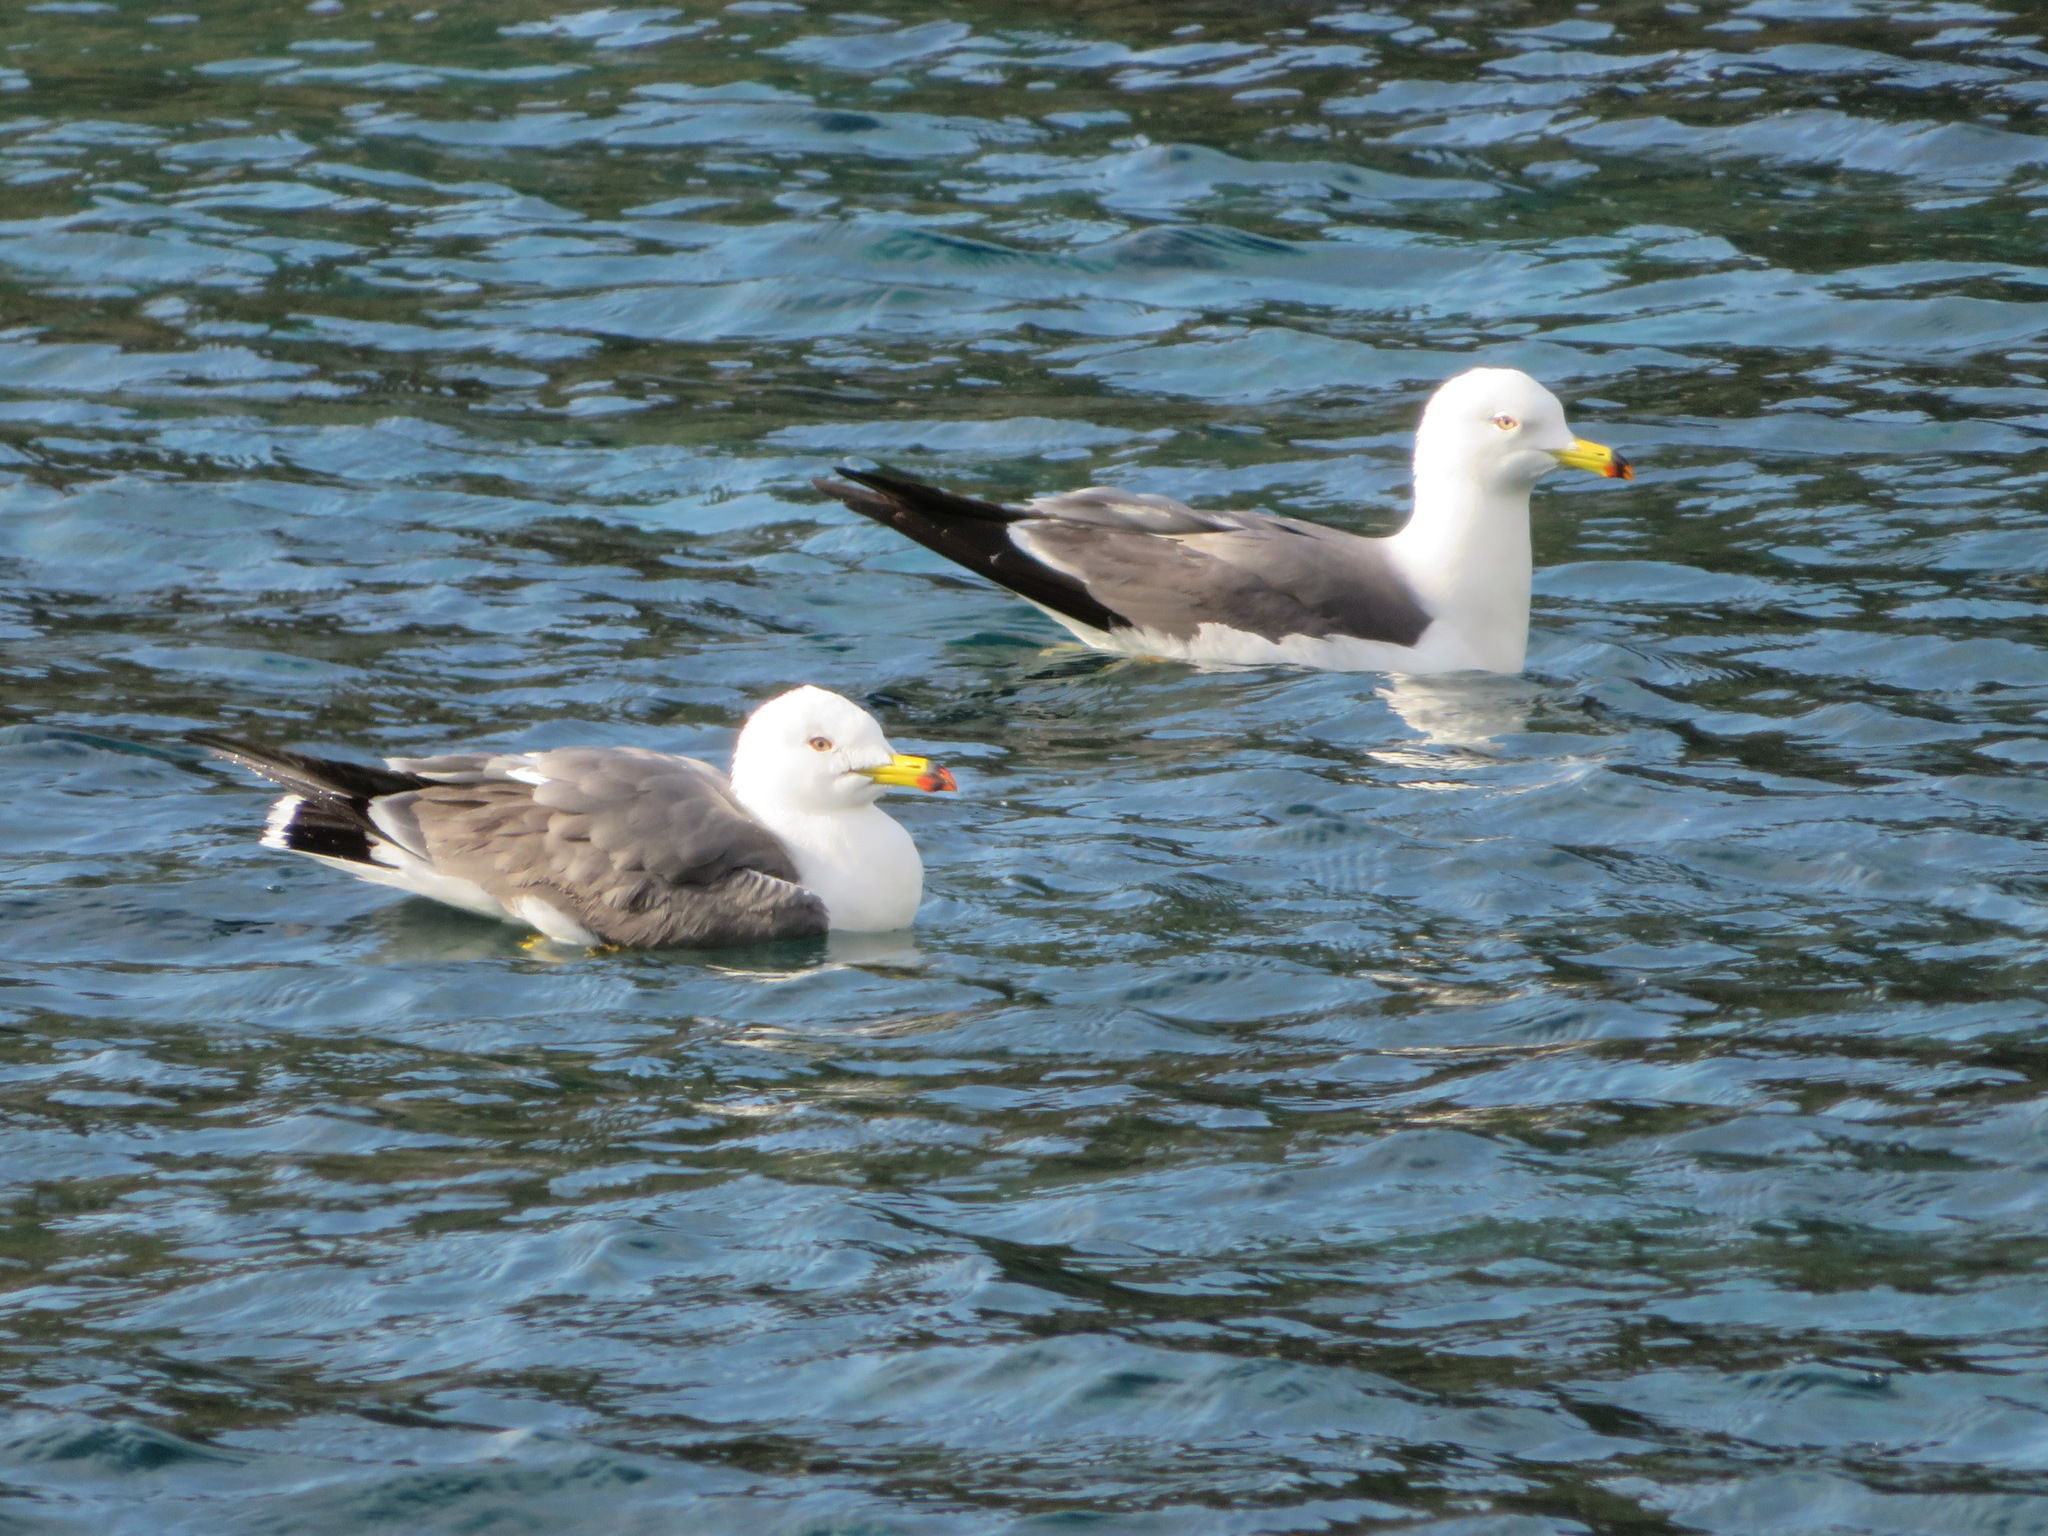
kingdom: Animalia
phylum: Chordata
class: Aves
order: Charadriiformes
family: Laridae
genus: Larus
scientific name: Larus crassirostris
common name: Black-tailed gull
